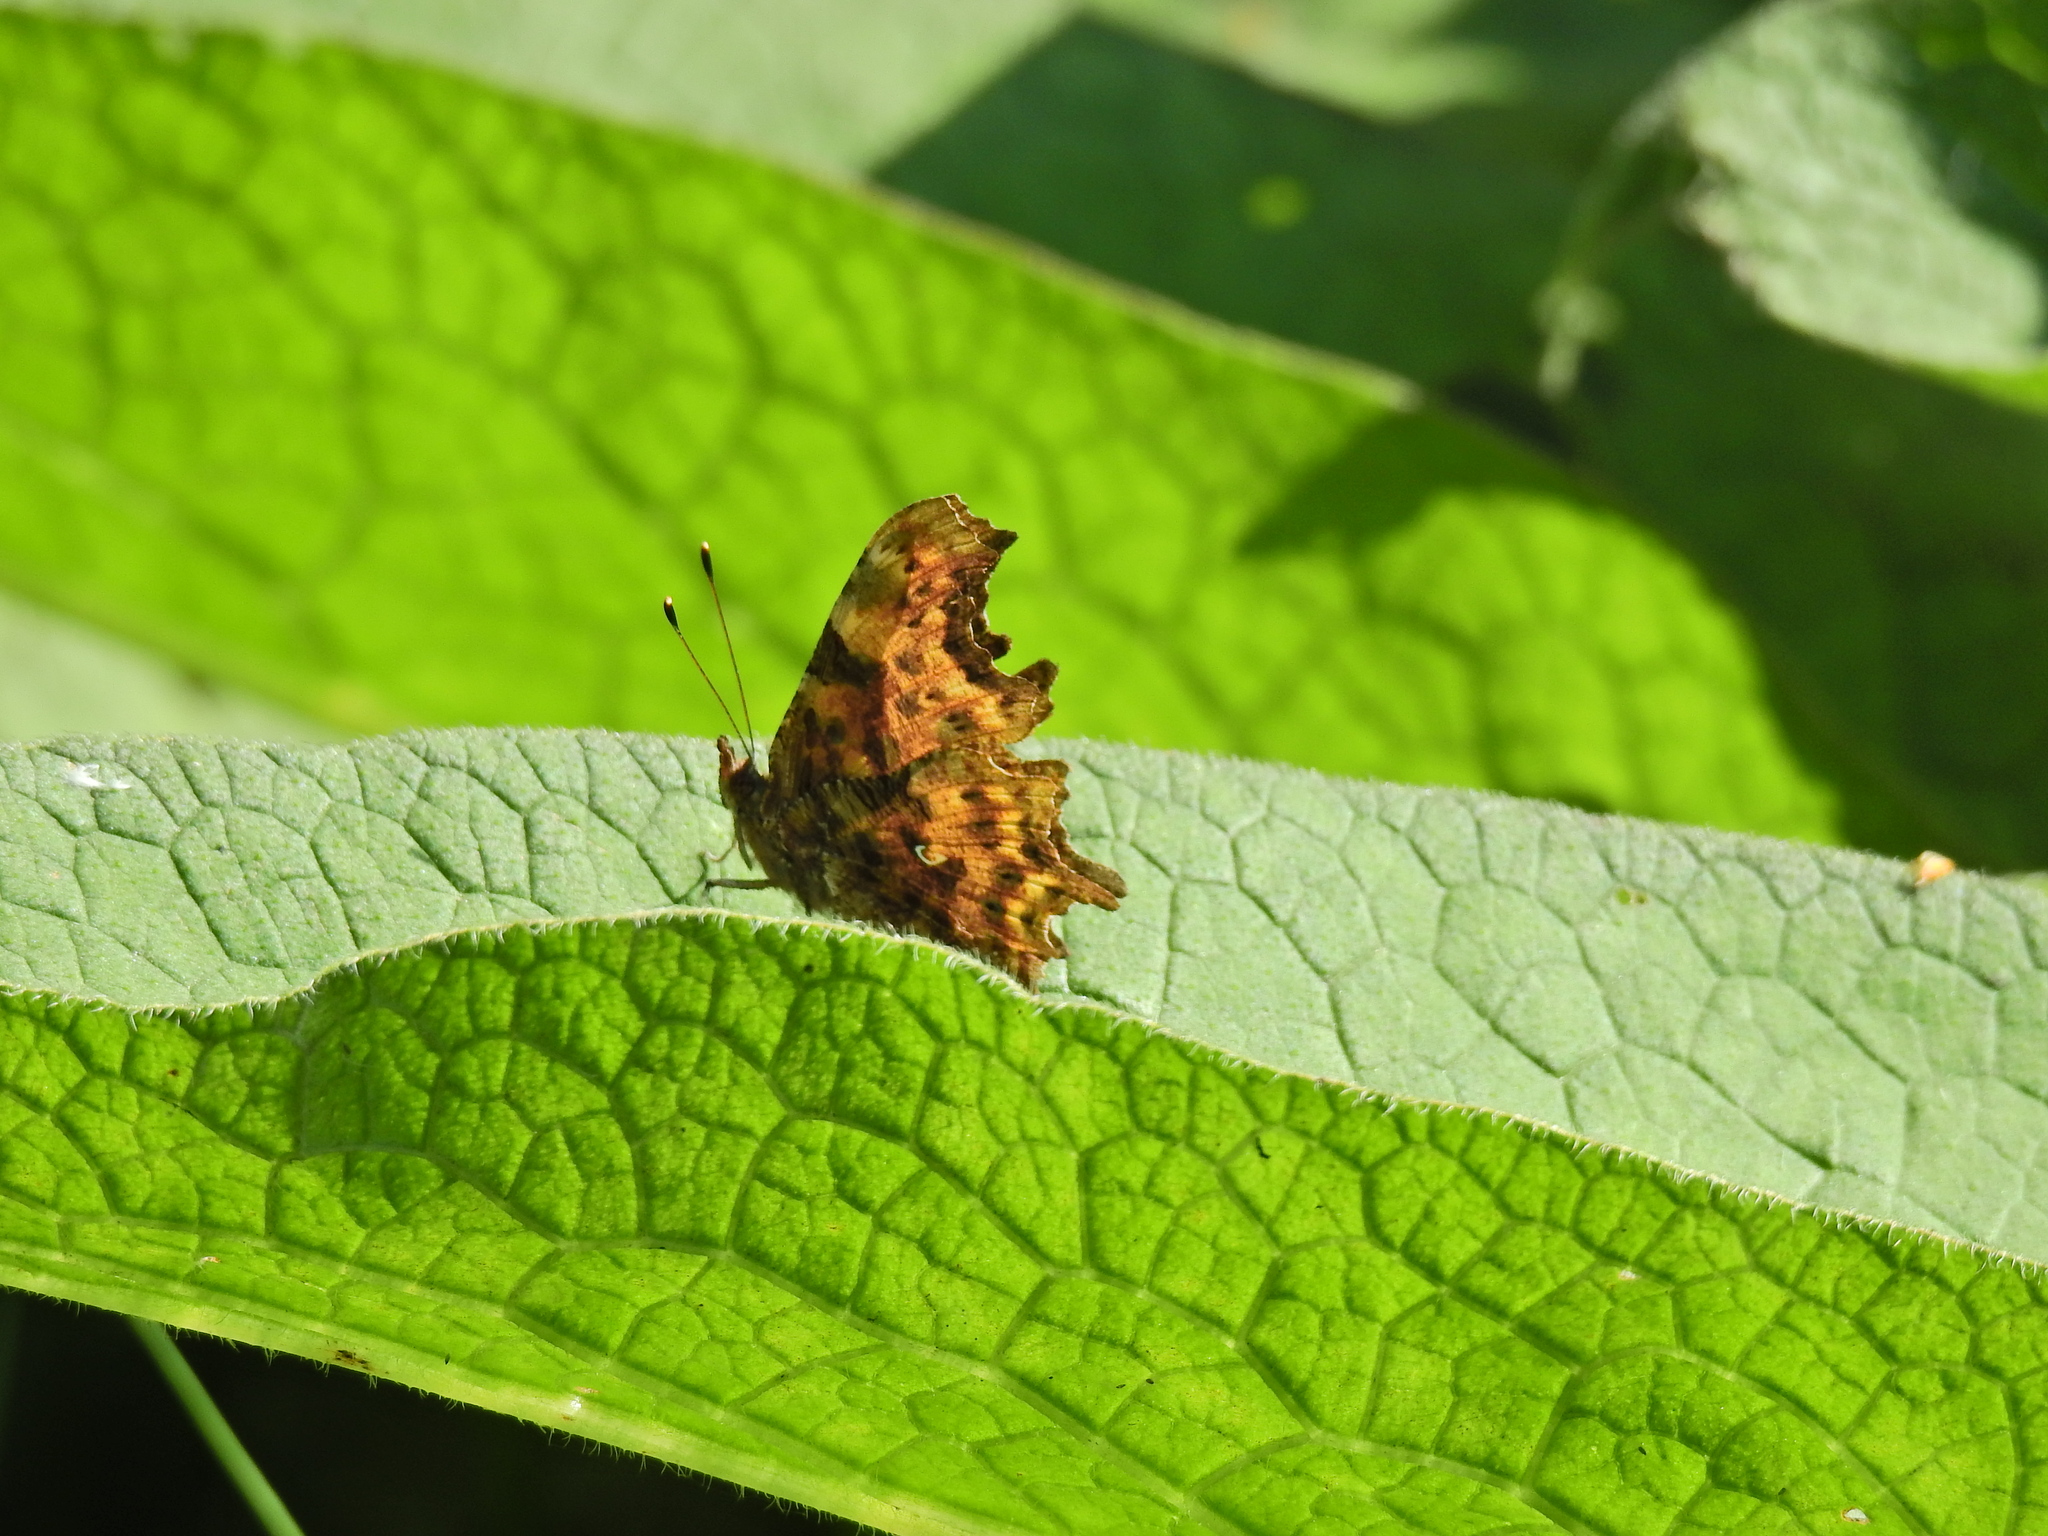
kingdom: Animalia
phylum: Arthropoda
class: Insecta
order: Lepidoptera
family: Nymphalidae
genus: Polygonia
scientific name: Polygonia c-album
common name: Comma
